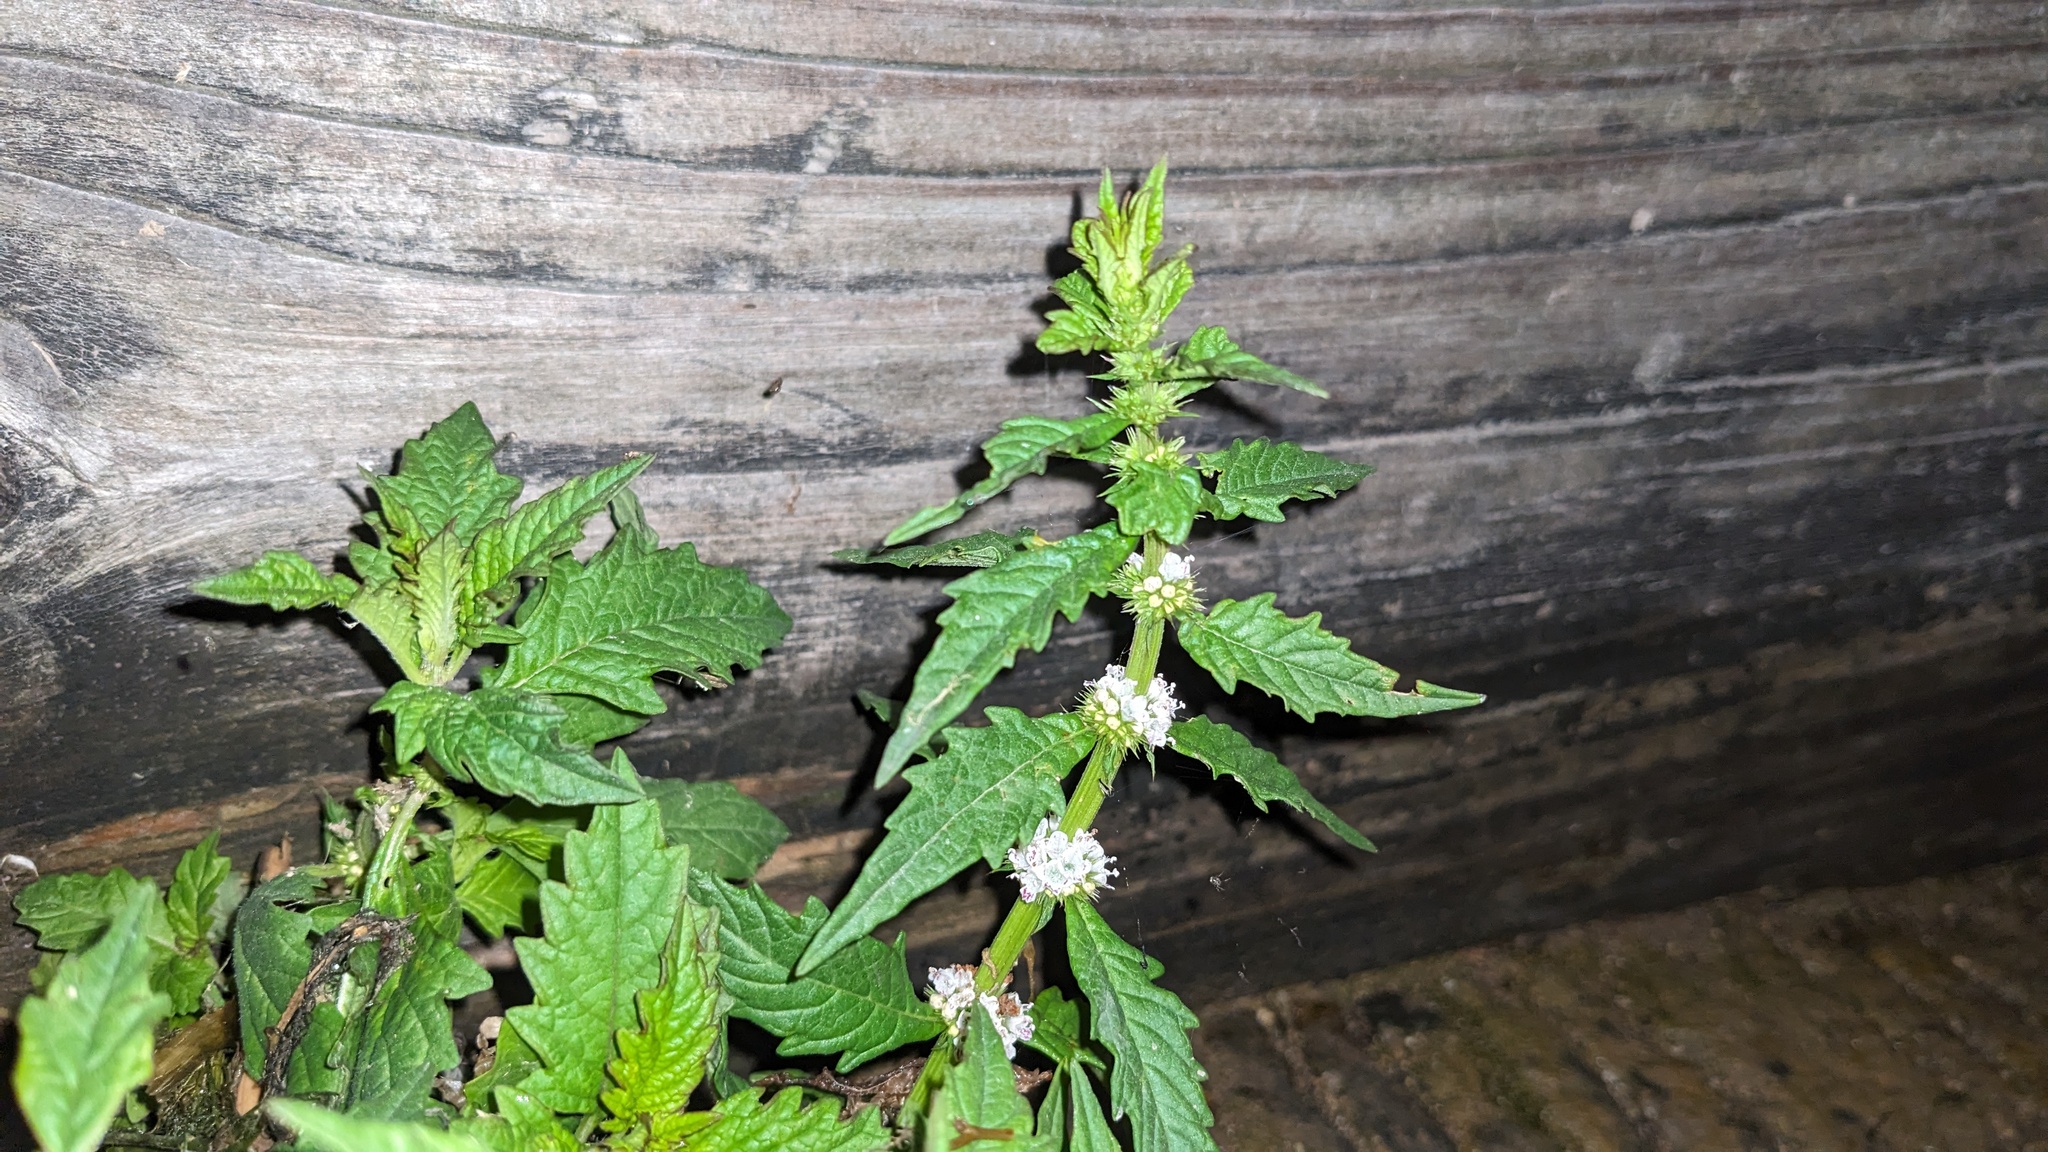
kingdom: Plantae
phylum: Tracheophyta
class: Magnoliopsida
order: Lamiales
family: Lamiaceae
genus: Lycopus
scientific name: Lycopus europaeus
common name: European bugleweed
